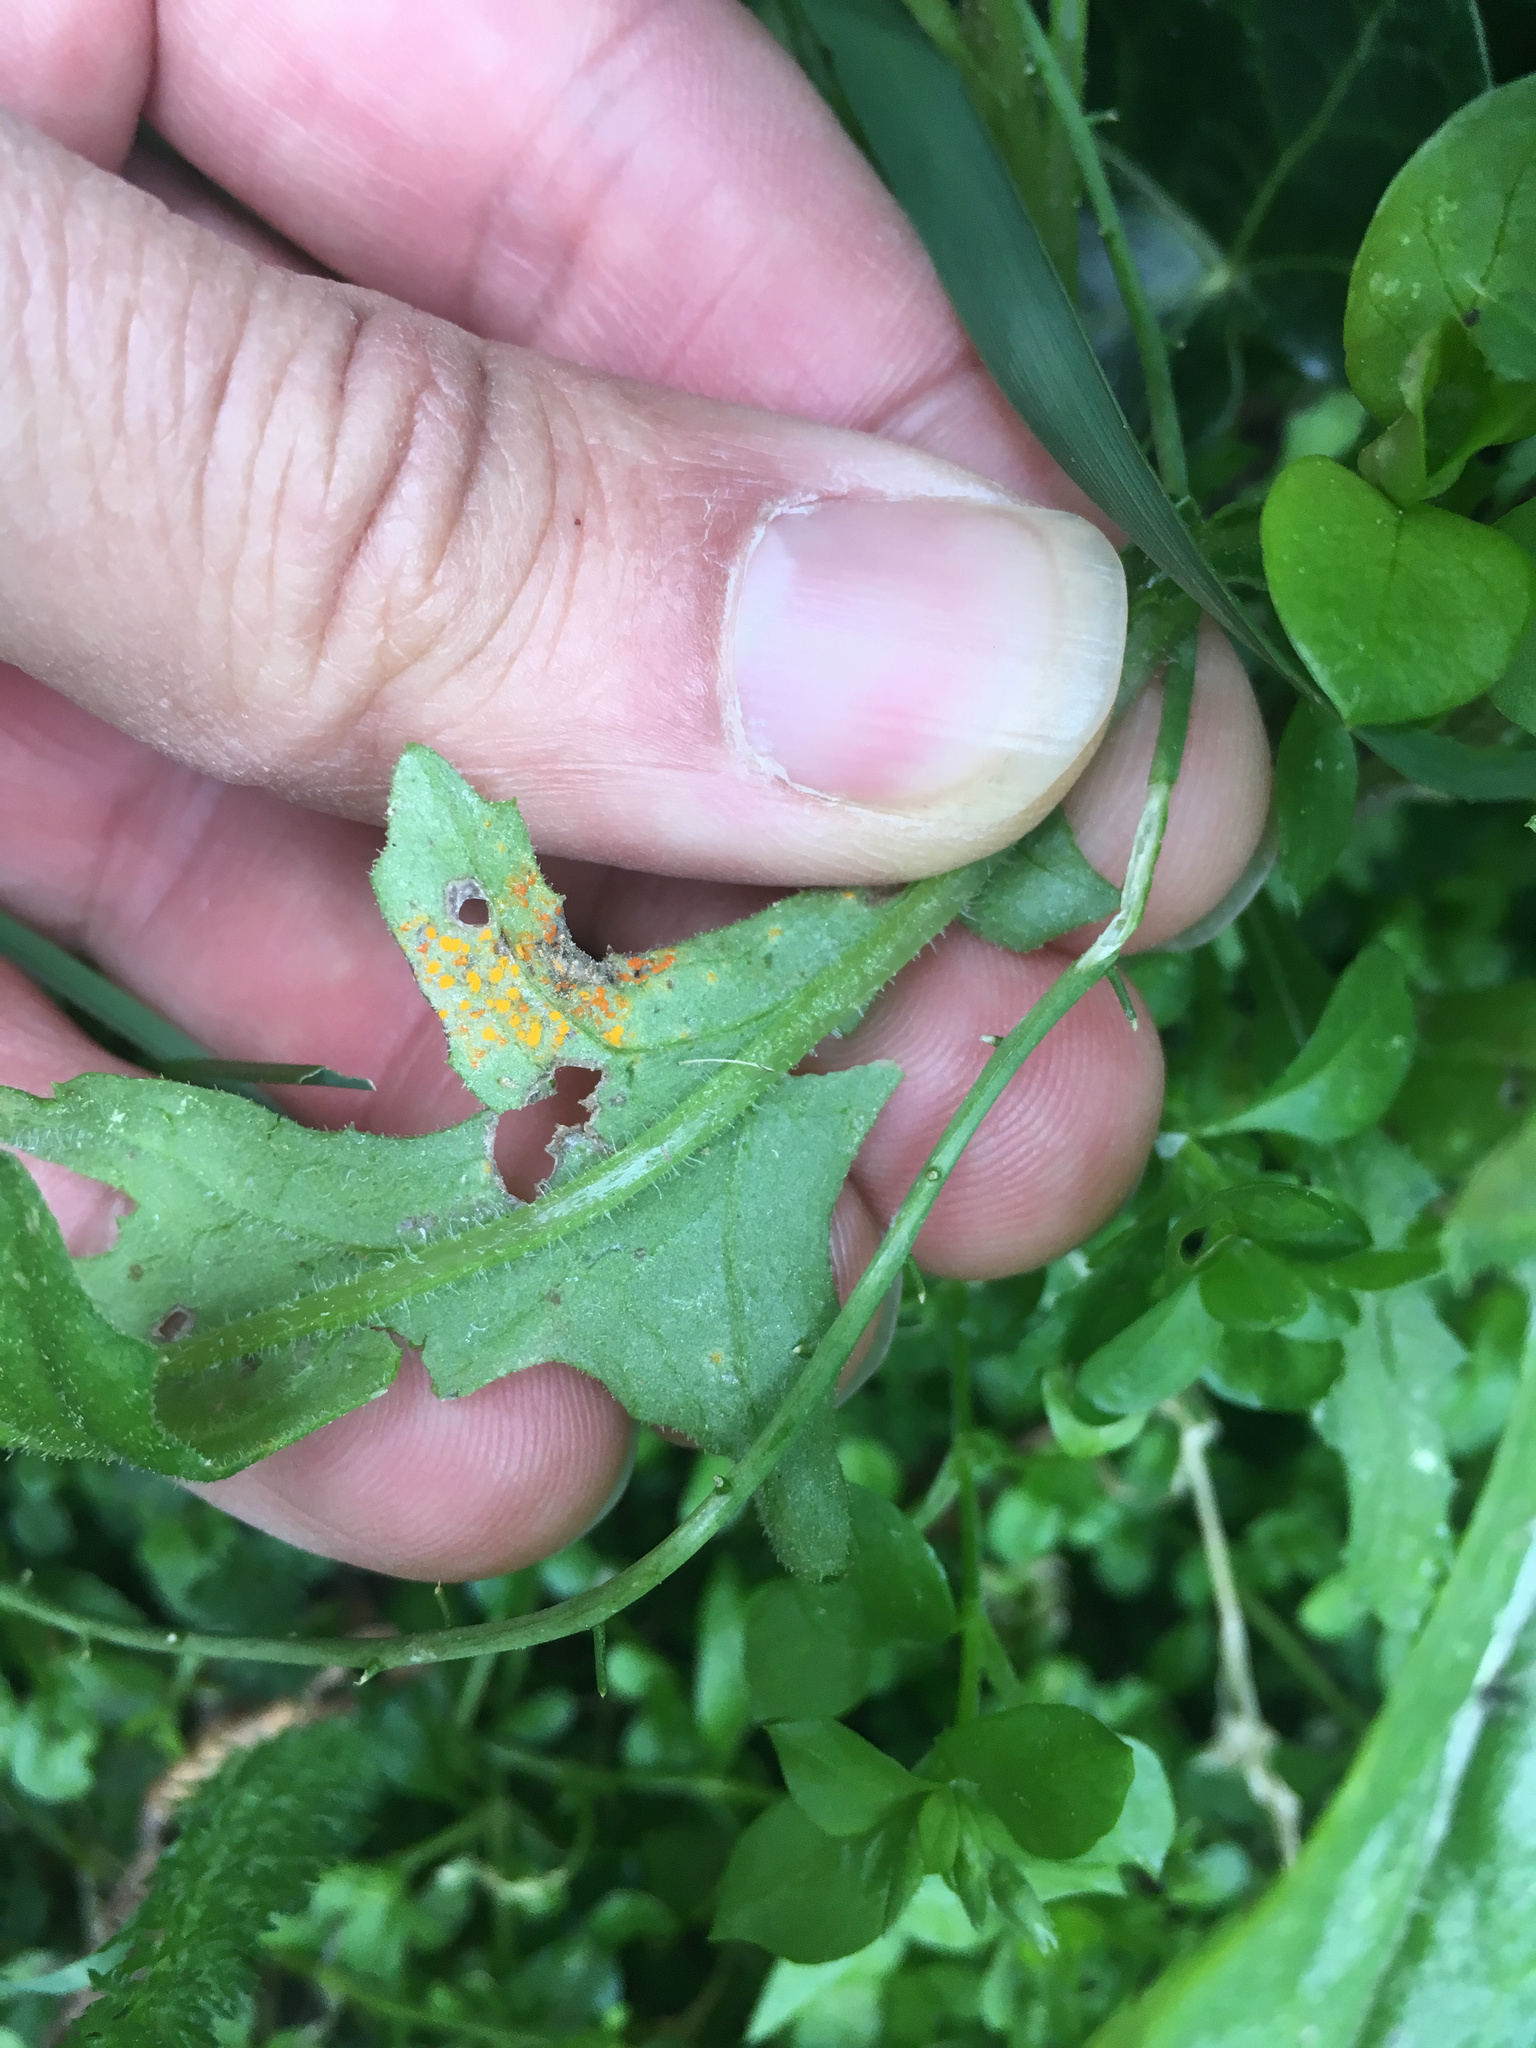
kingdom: Fungi
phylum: Basidiomycota
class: Pucciniomycetes
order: Pucciniales
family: Coleosporiaceae
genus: Coleosporium
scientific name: Coleosporium tussilaginis
